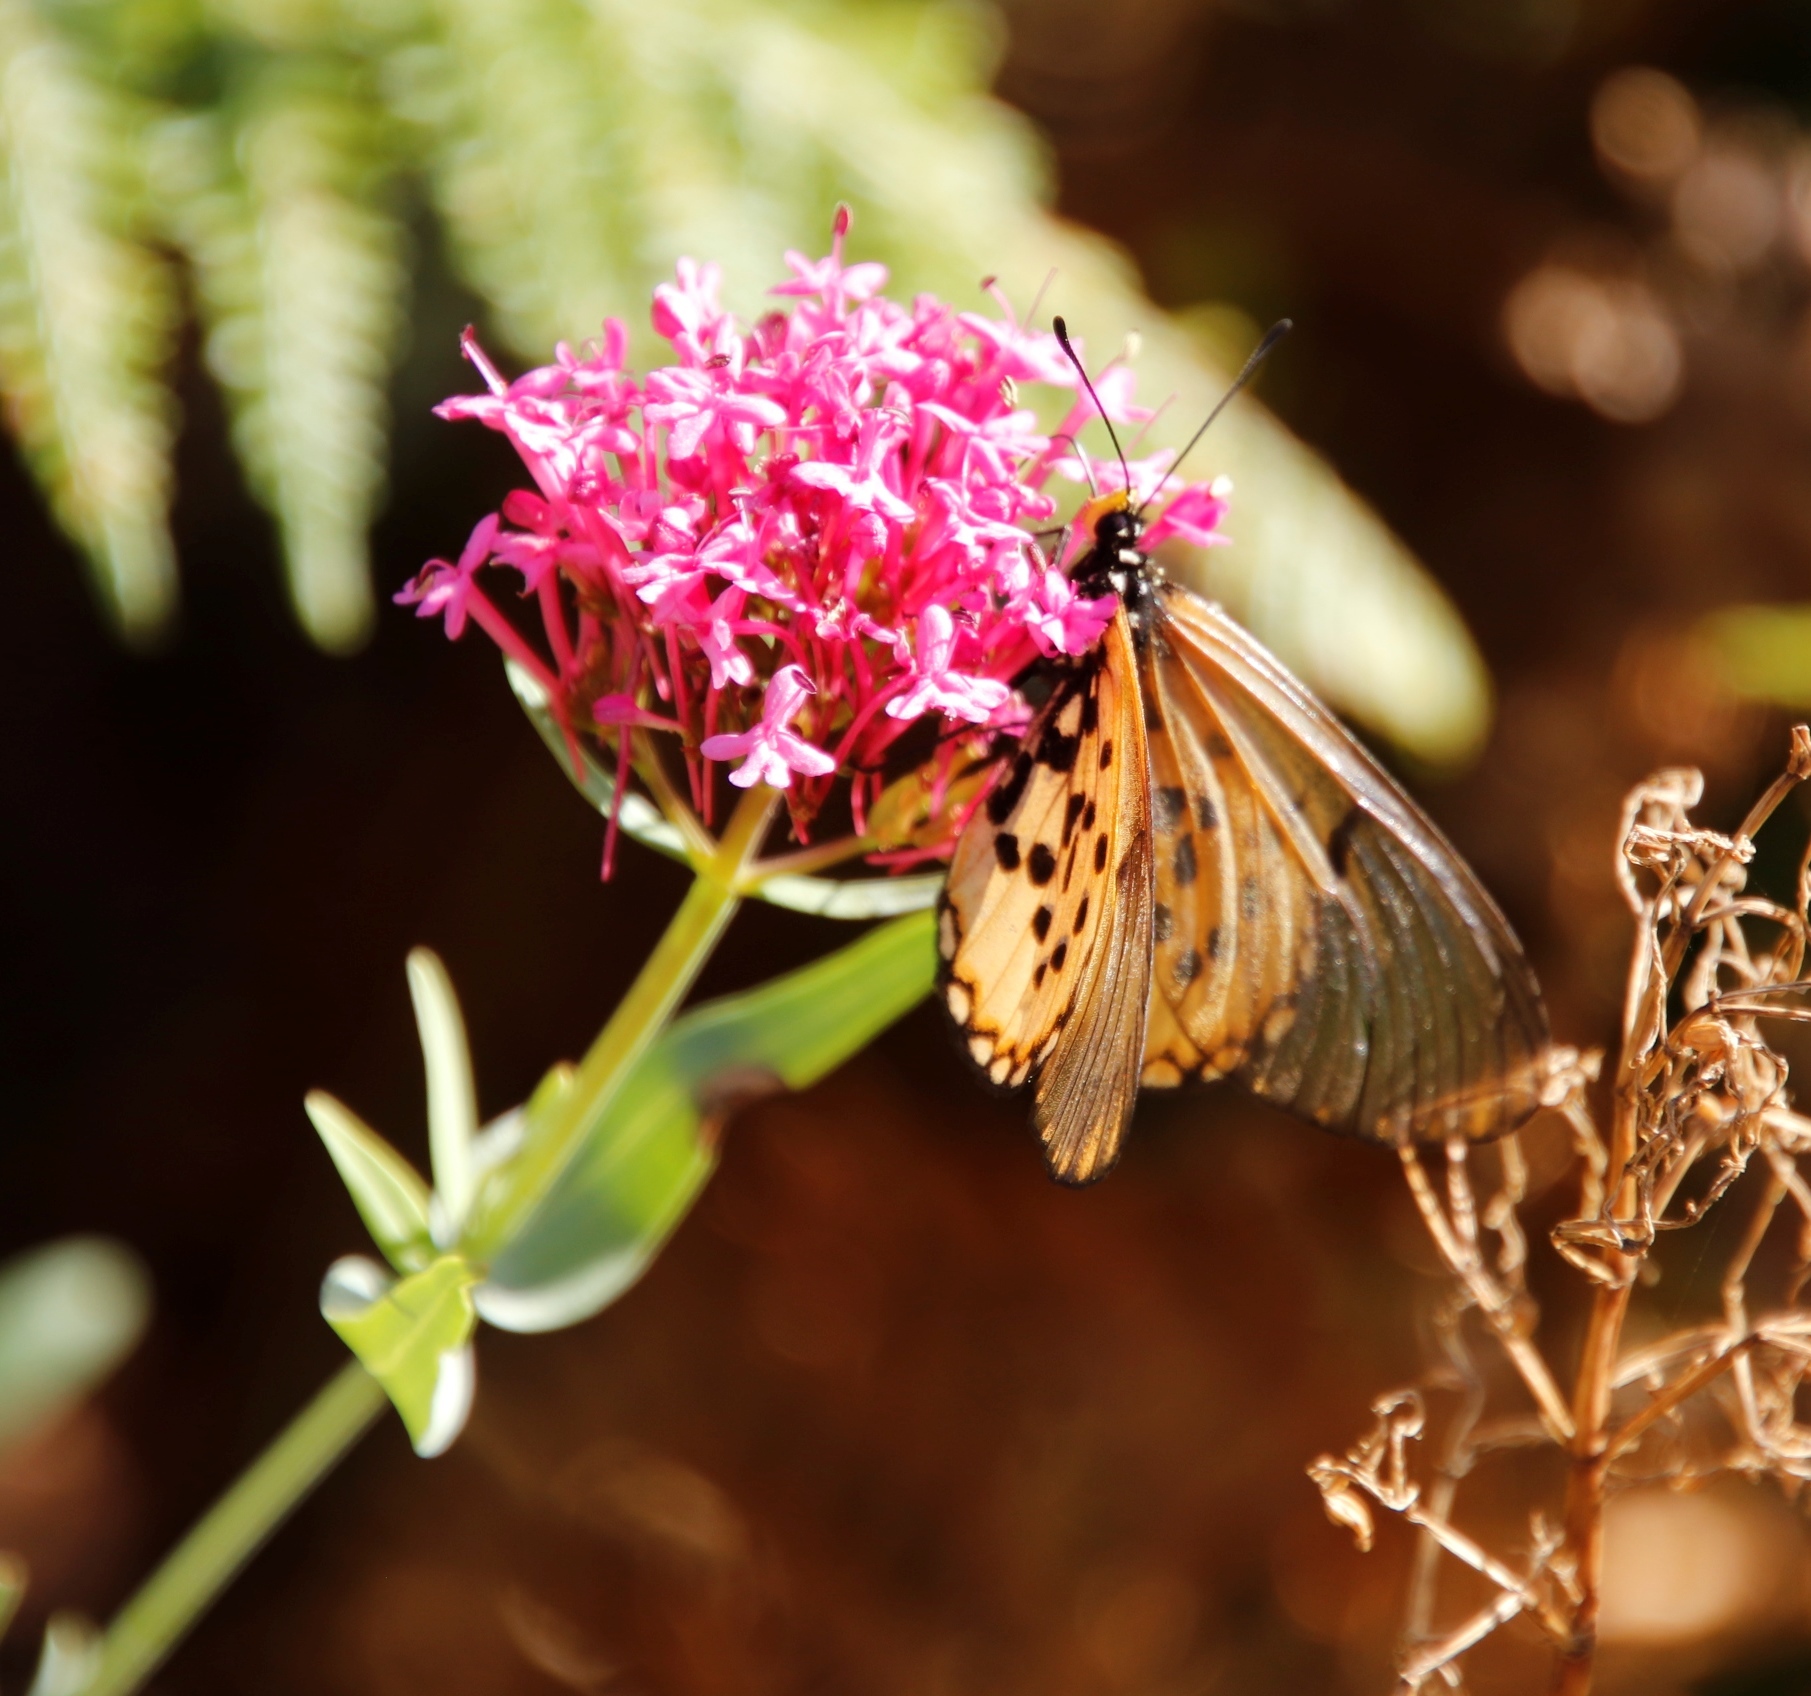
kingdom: Plantae
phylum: Tracheophyta
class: Magnoliopsida
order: Dipsacales
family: Caprifoliaceae
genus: Centranthus
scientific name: Centranthus ruber
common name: Red valerian
